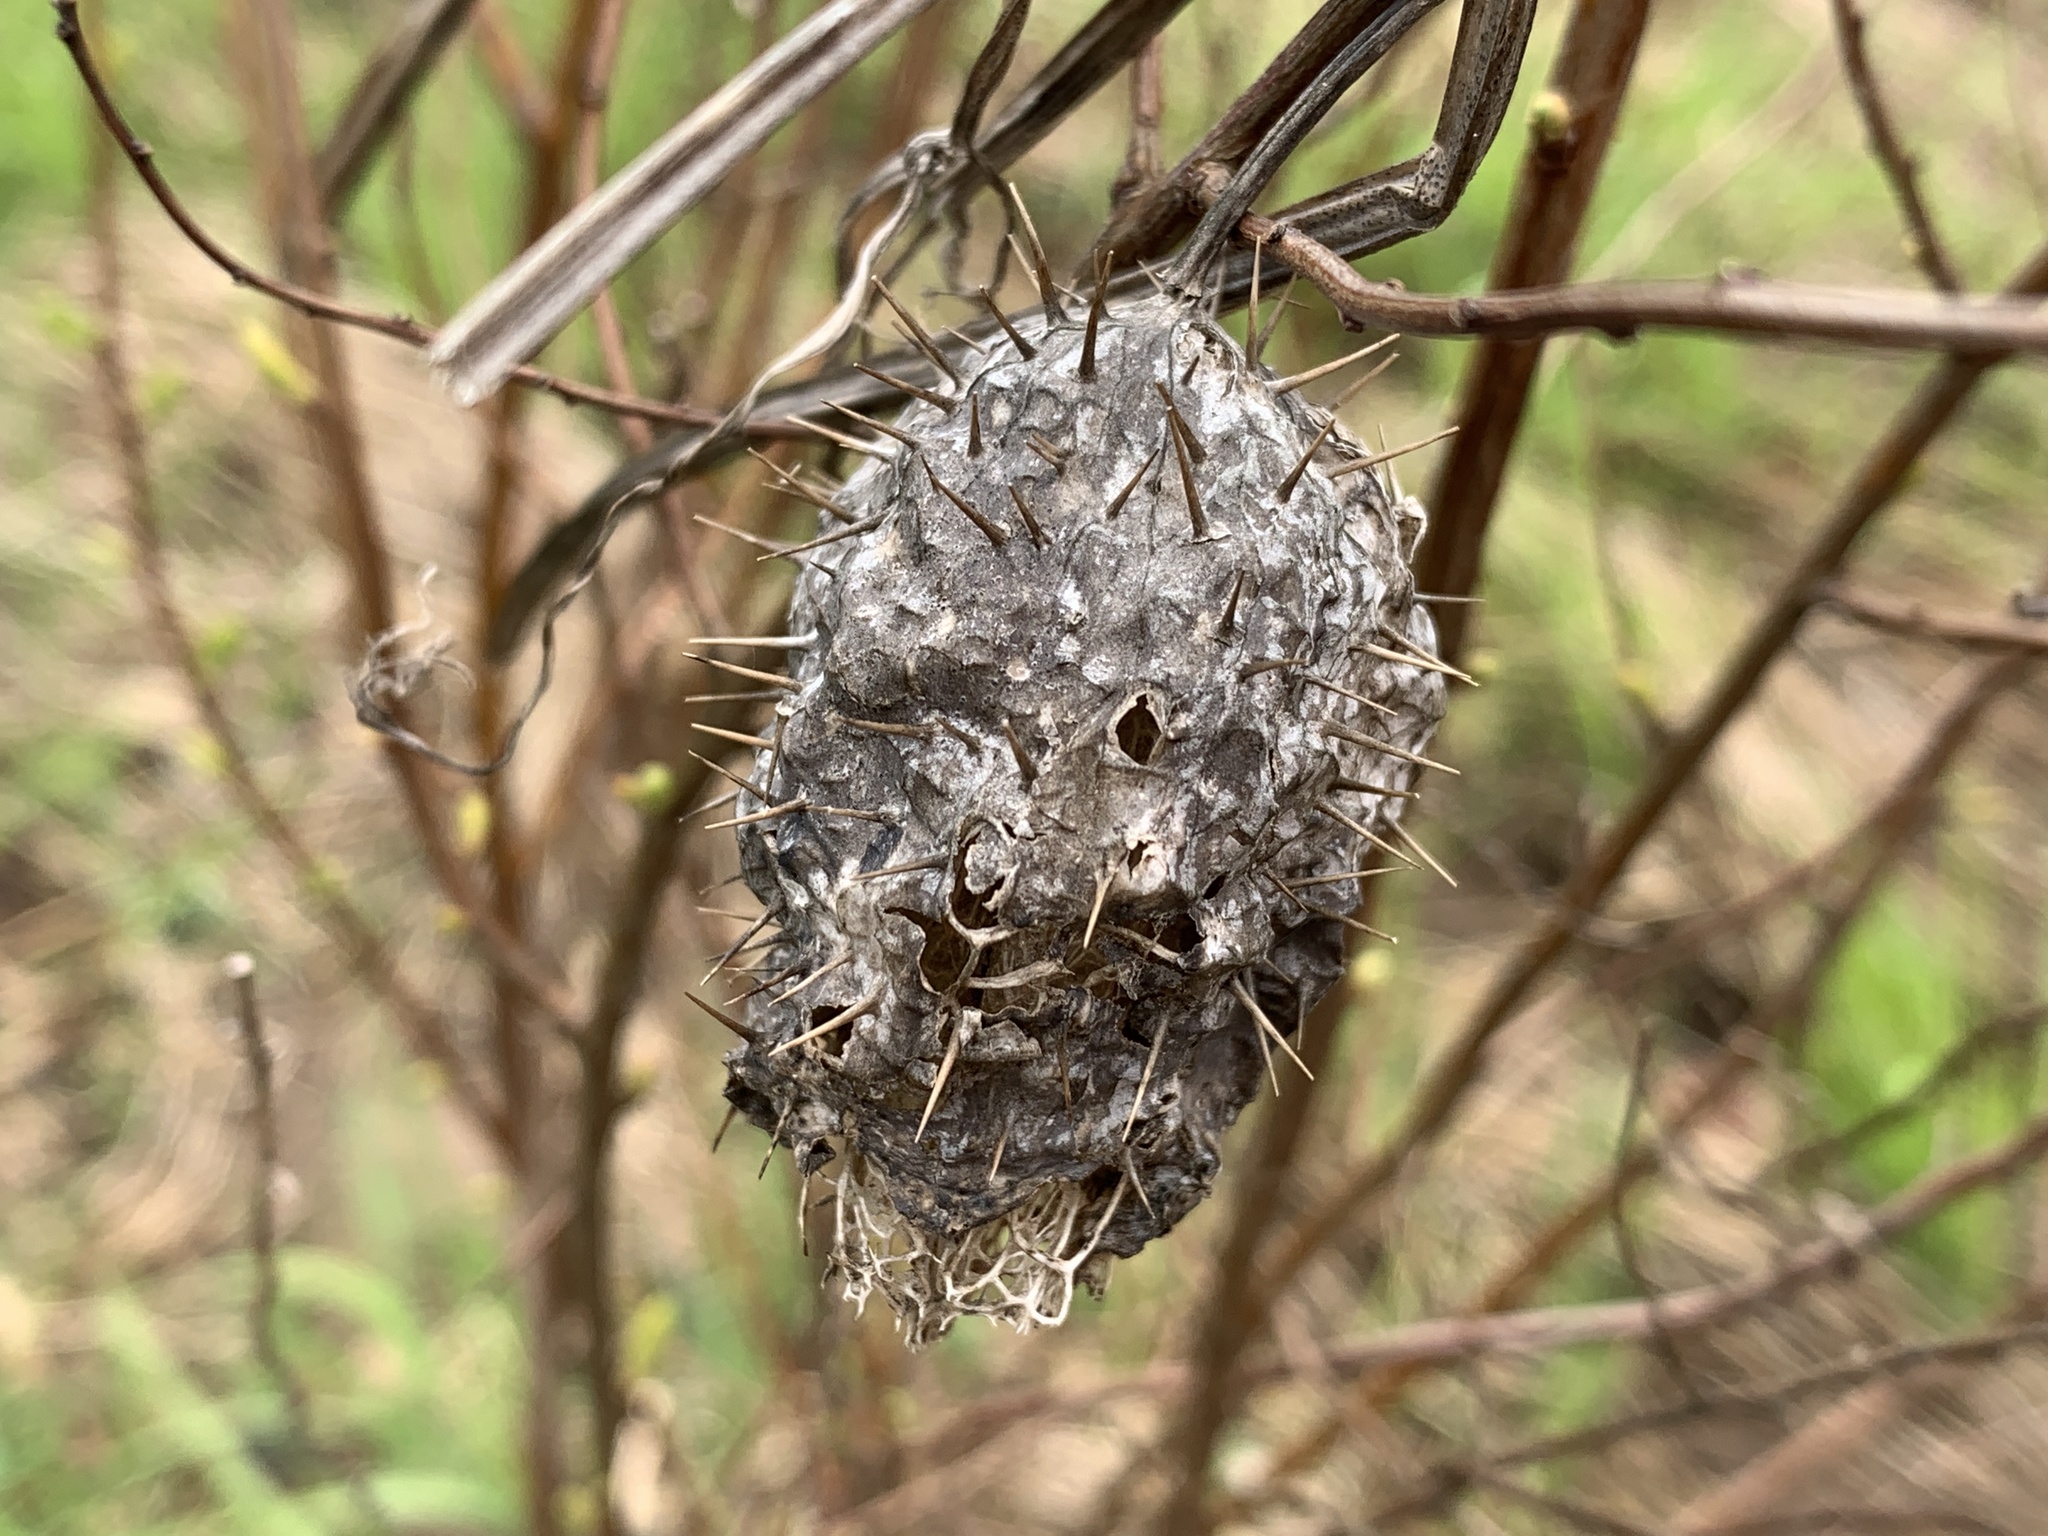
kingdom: Plantae
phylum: Tracheophyta
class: Magnoliopsida
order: Cucurbitales
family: Cucurbitaceae
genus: Echinocystis
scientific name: Echinocystis lobata
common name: Wild cucumber
